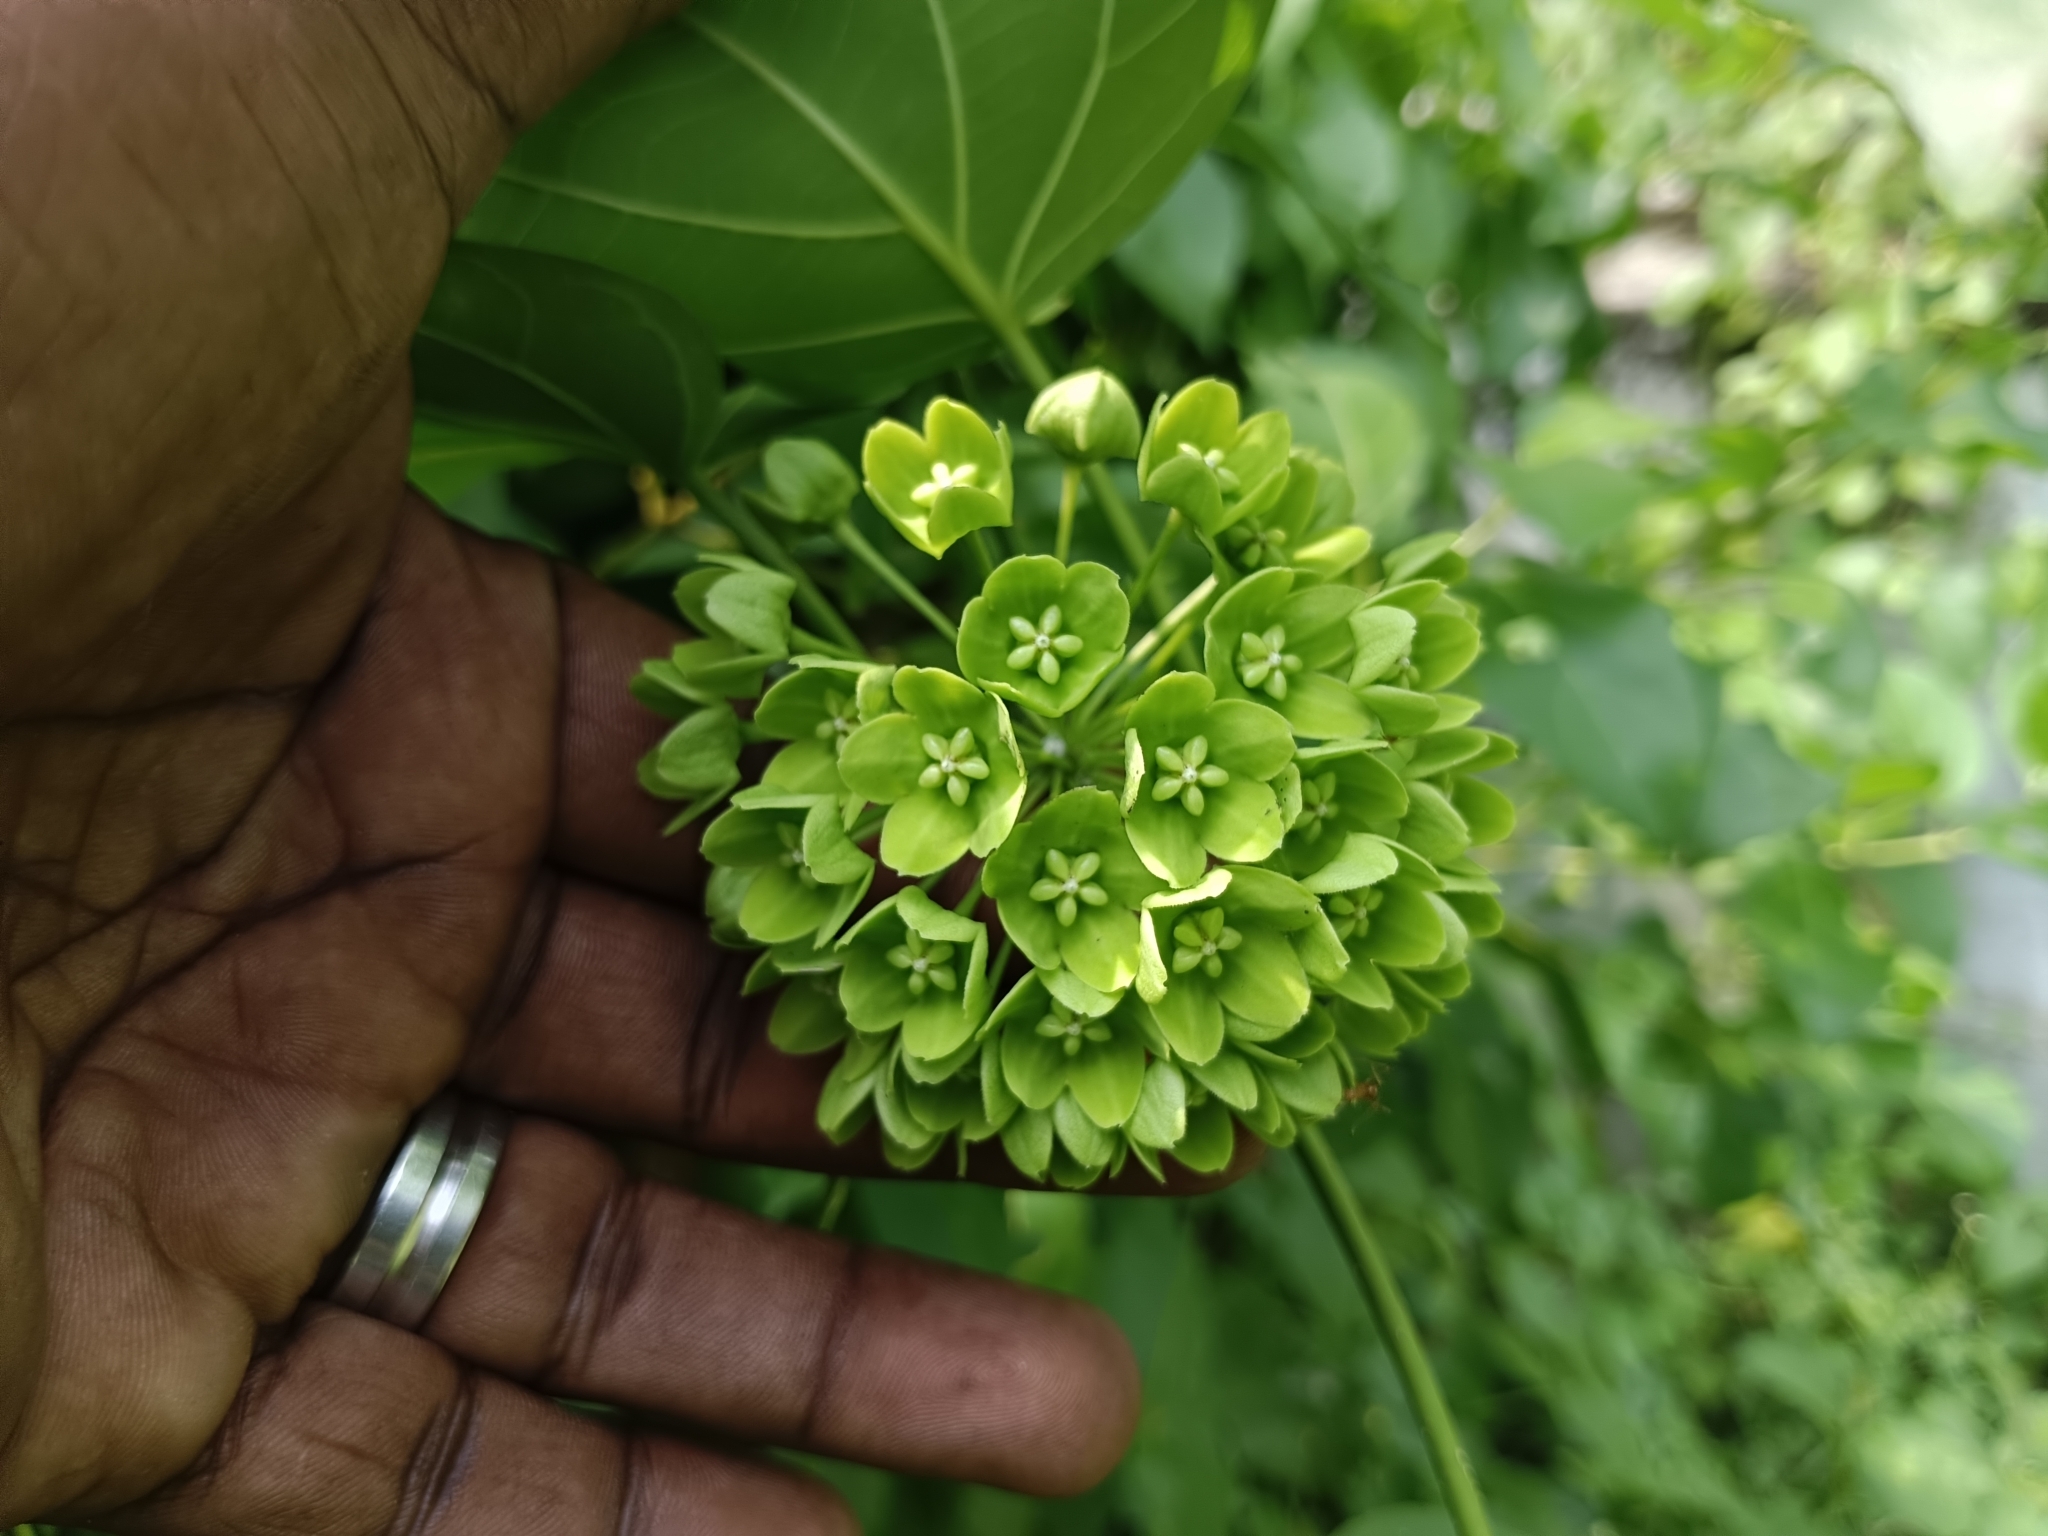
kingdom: Plantae
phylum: Tracheophyta
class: Magnoliopsida
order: Gentianales
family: Apocynaceae
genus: Stephanotis
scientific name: Stephanotis volubilis
